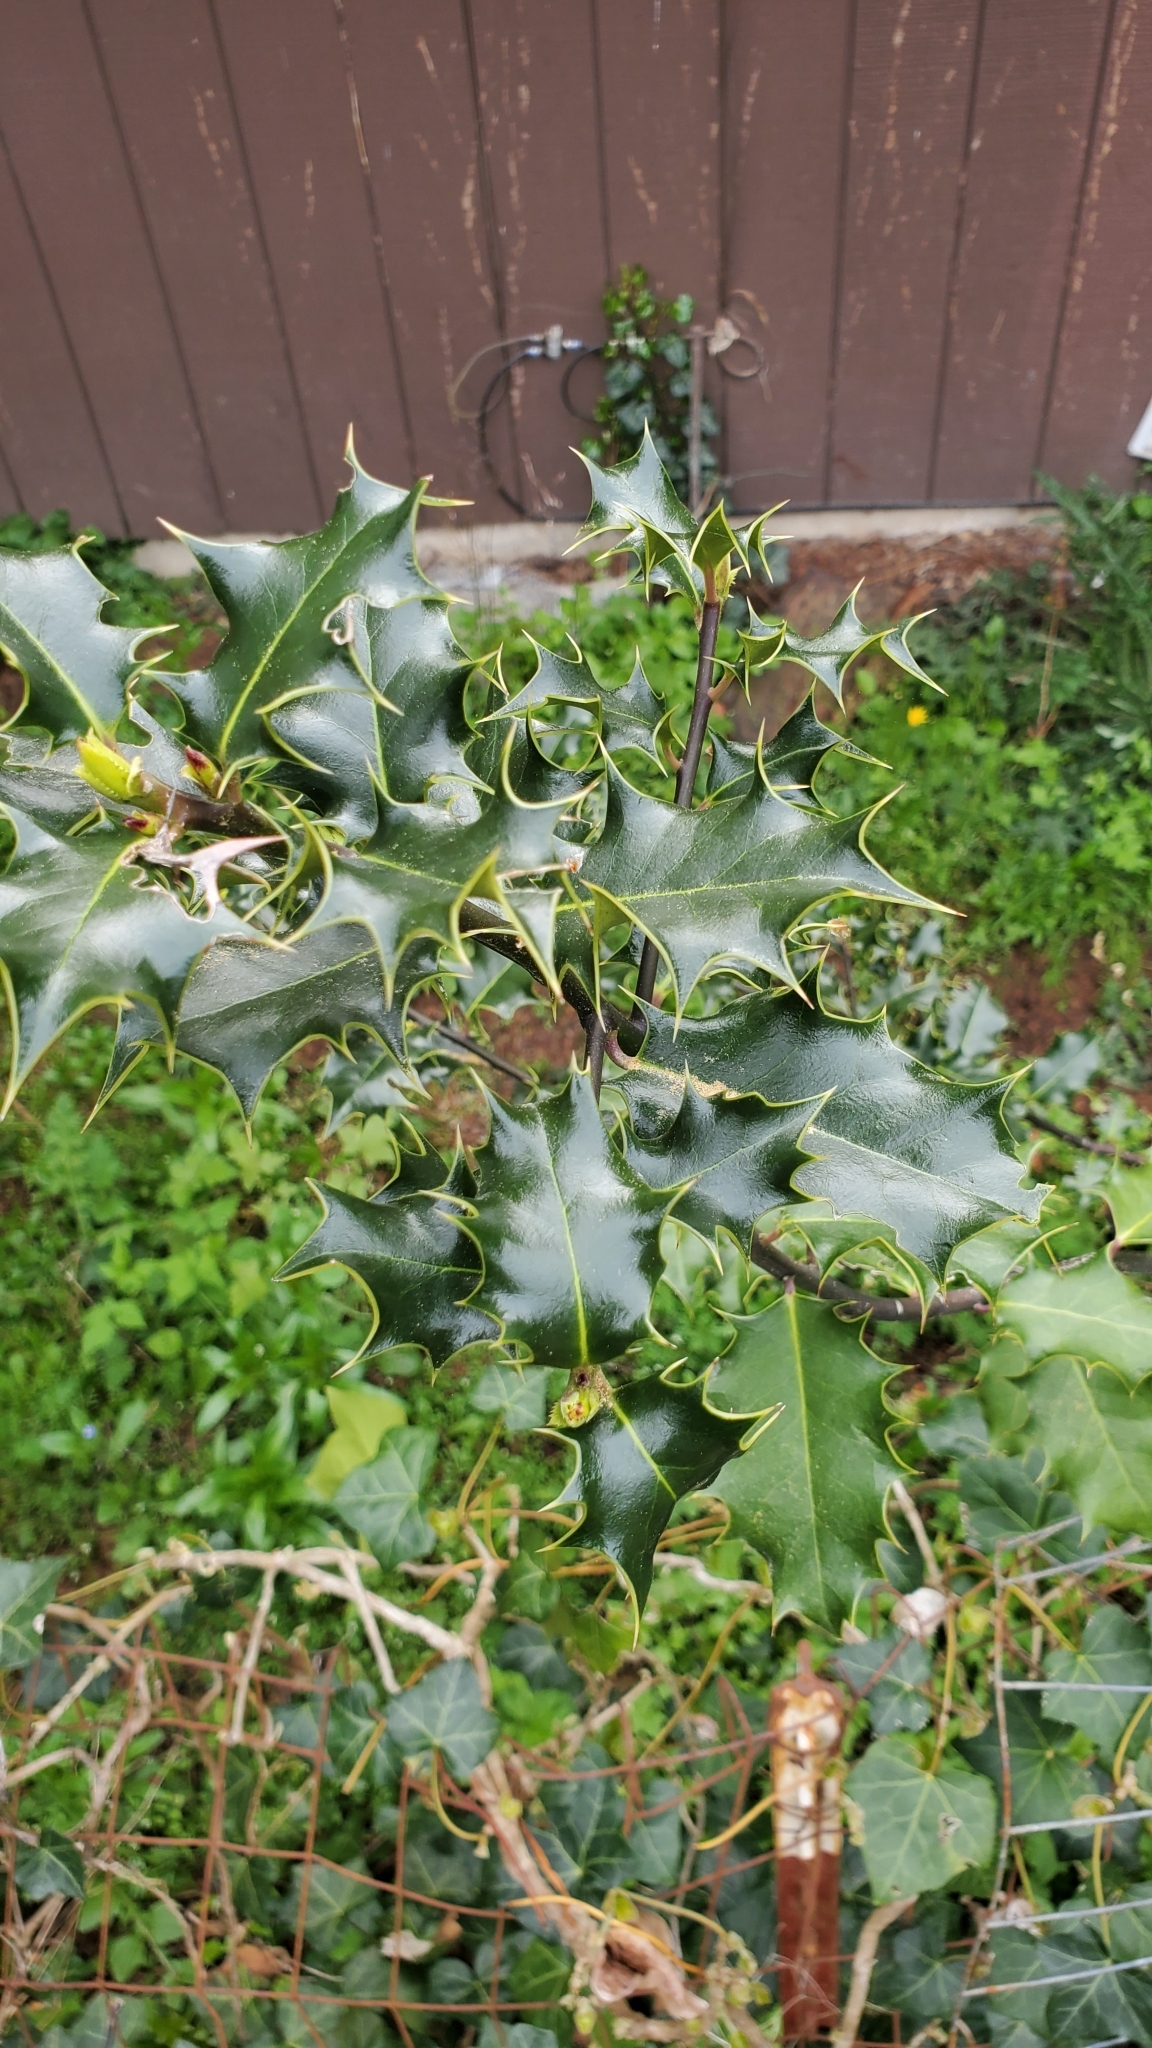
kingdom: Plantae
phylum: Tracheophyta
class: Magnoliopsida
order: Aquifoliales
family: Aquifoliaceae
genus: Ilex
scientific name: Ilex aquifolium
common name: English holly
